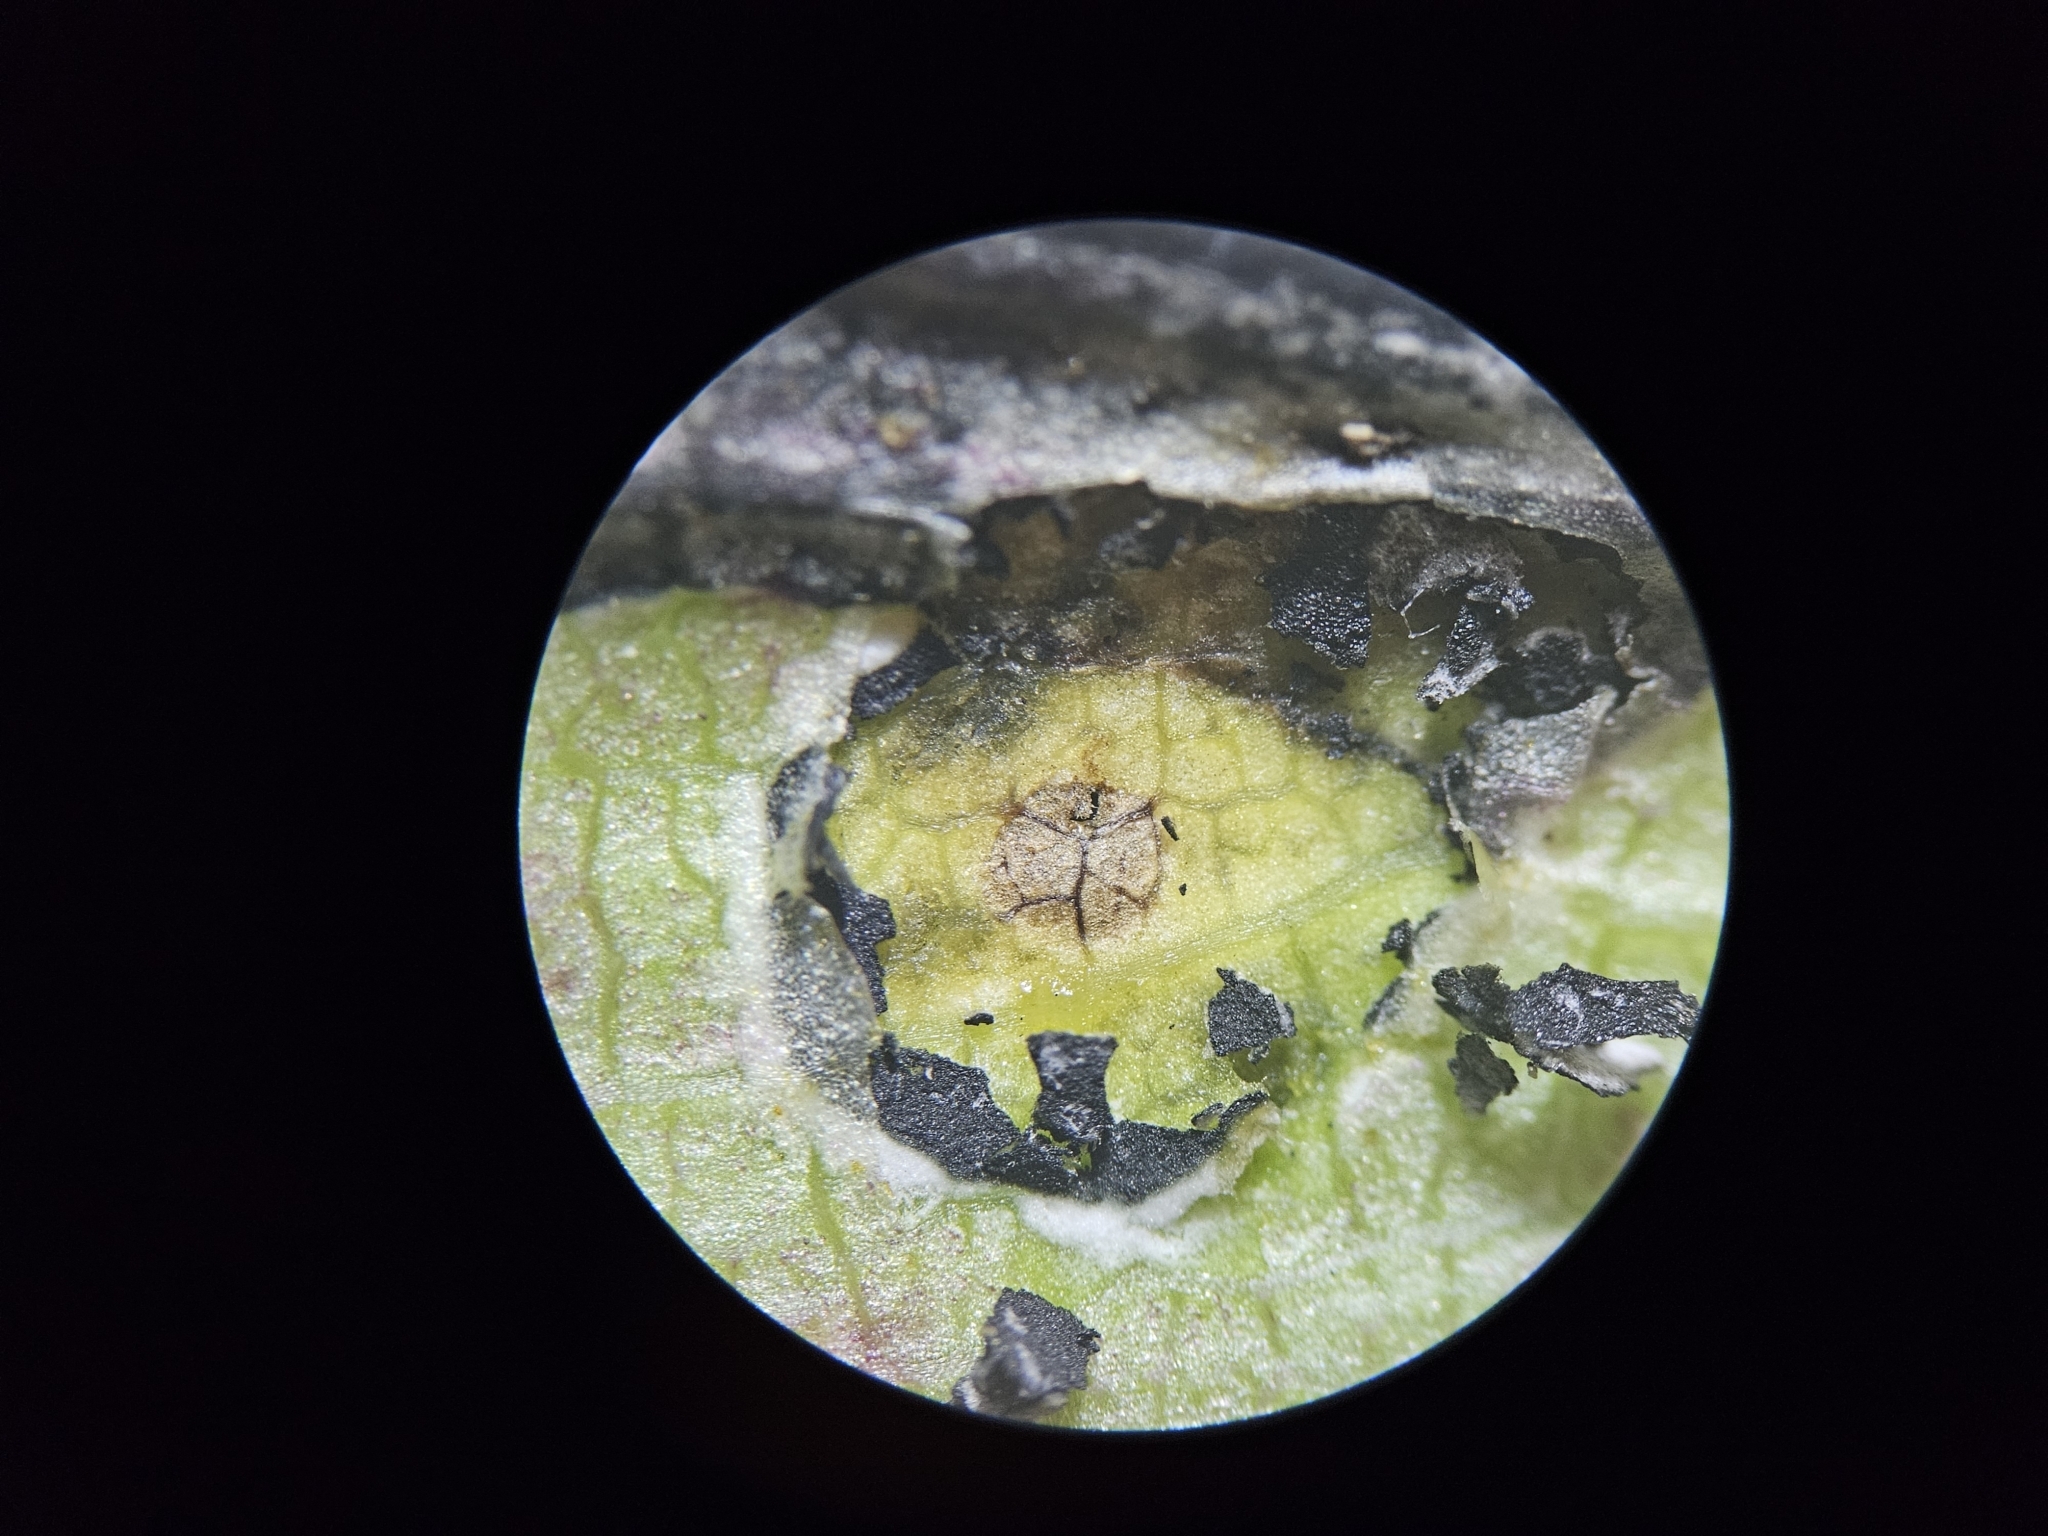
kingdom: Animalia
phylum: Arthropoda
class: Insecta
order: Diptera
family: Cecidomyiidae
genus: Asteromyia
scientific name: Asteromyia carbonifera
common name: Carbonifera goldenrod gall midge
